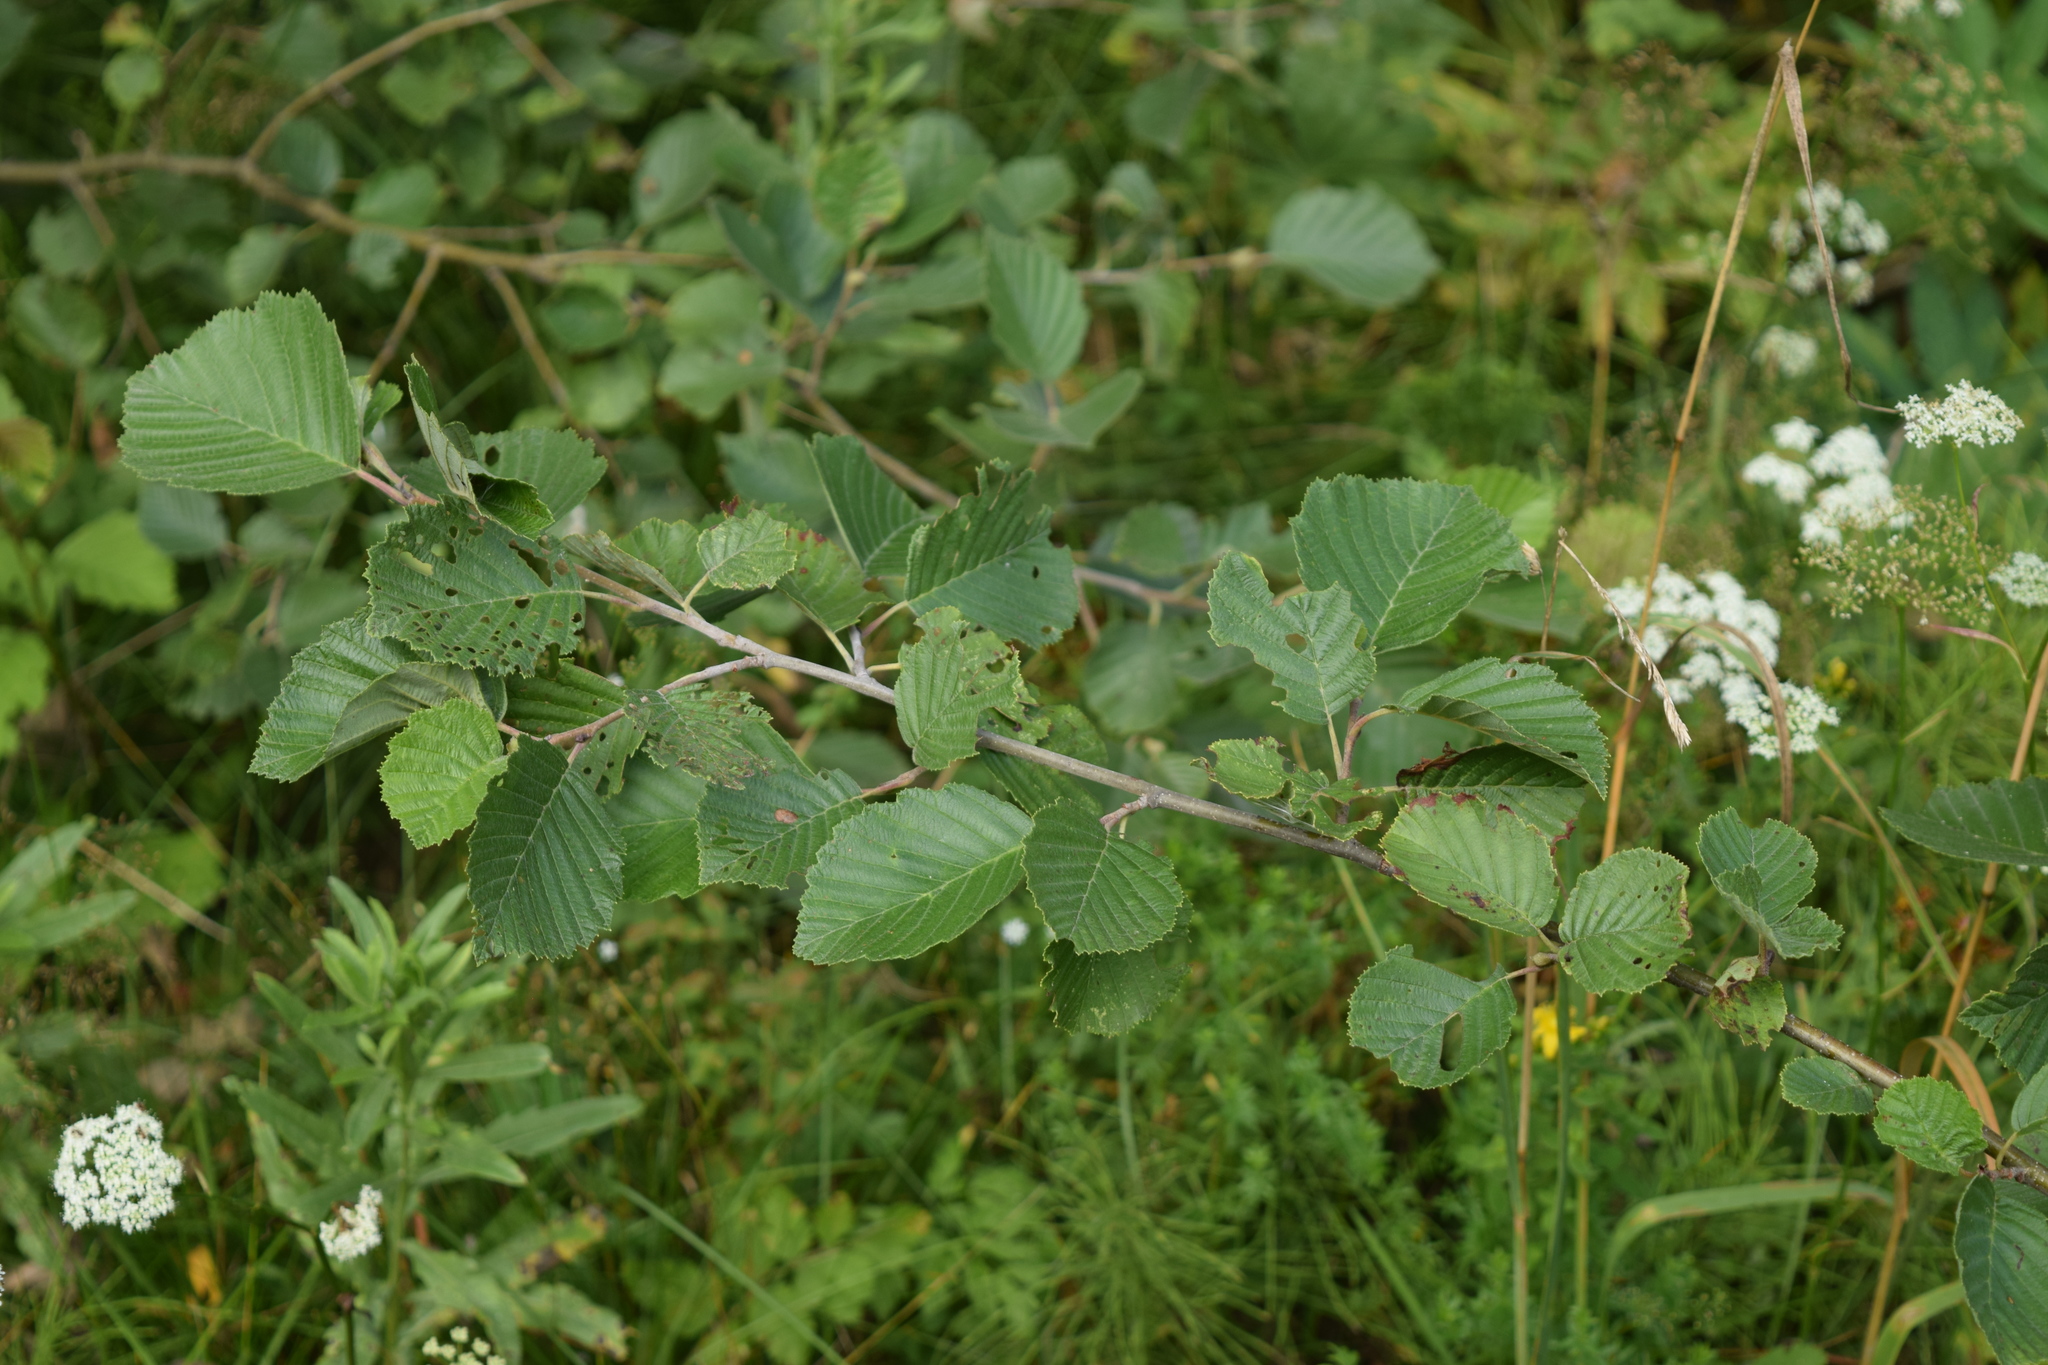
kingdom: Plantae
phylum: Tracheophyta
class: Magnoliopsida
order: Fagales
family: Betulaceae
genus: Alnus
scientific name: Alnus incana
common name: Grey alder
